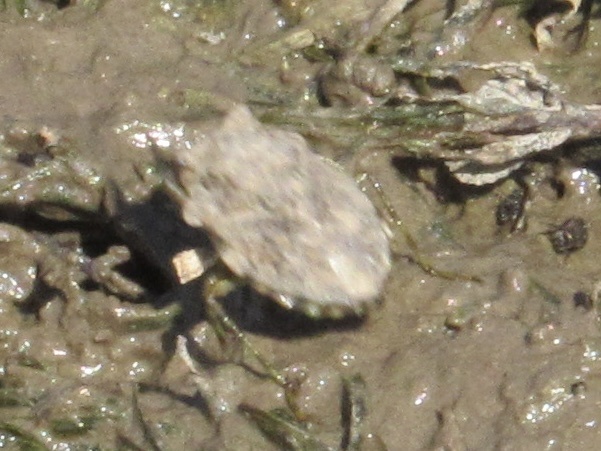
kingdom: Animalia
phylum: Arthropoda
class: Insecta
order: Hemiptera
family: Gelastocoridae
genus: Gelastocoris
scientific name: Gelastocoris oculatus
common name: Toad bug
